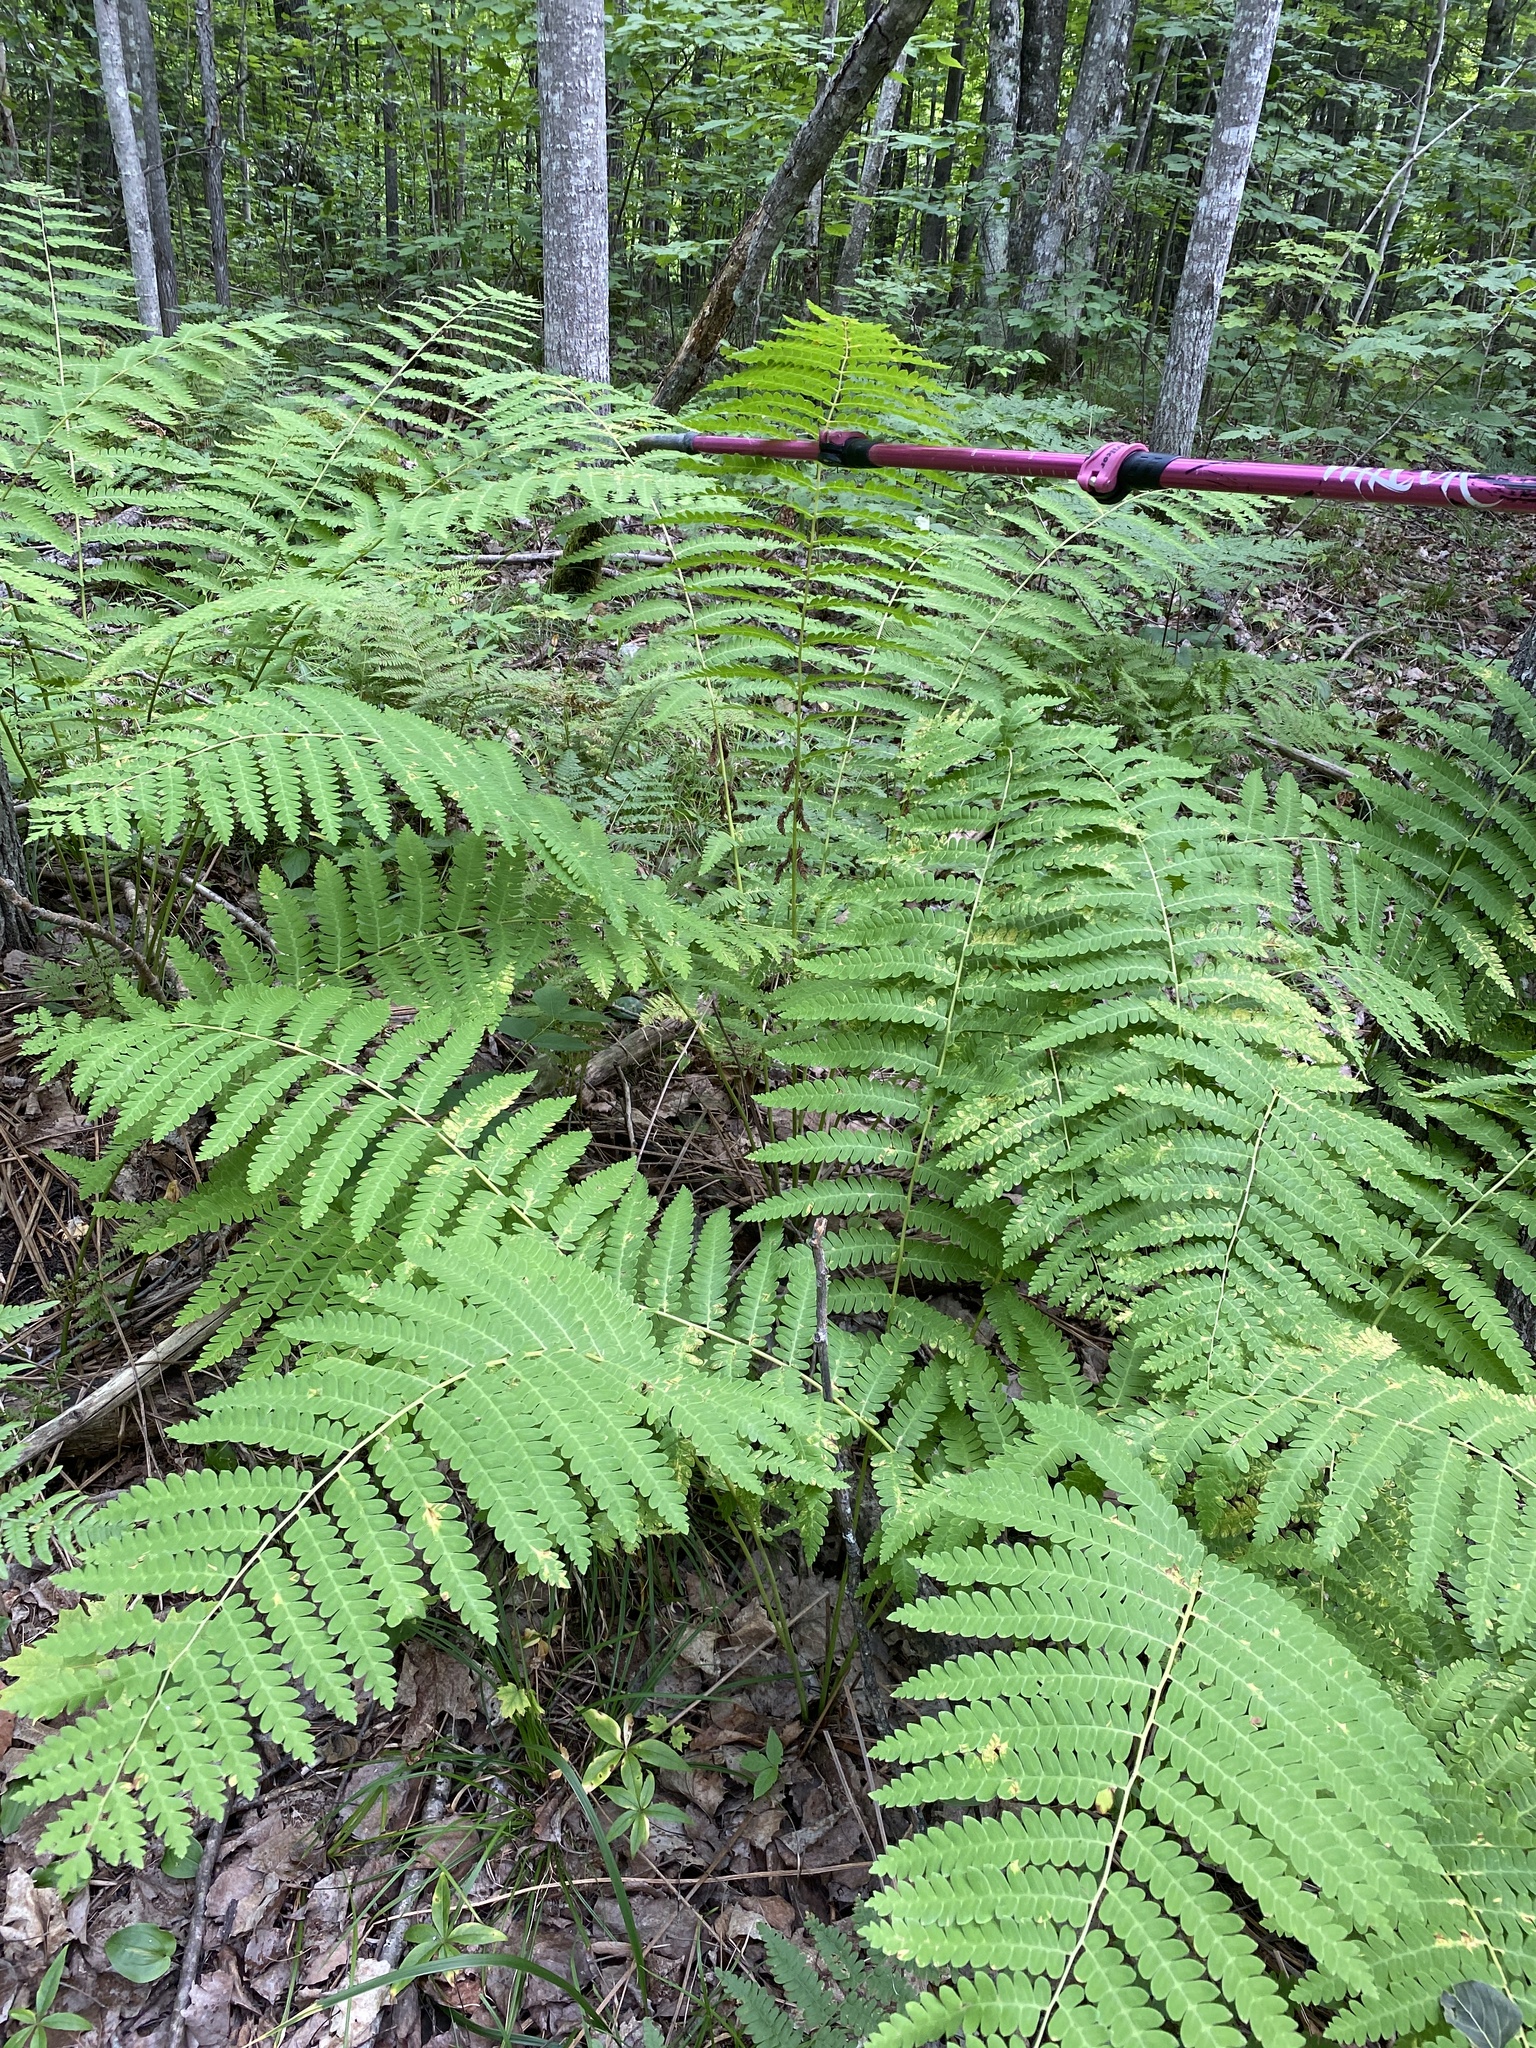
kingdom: Plantae
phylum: Tracheophyta
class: Polypodiopsida
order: Osmundales
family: Osmundaceae
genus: Claytosmunda
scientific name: Claytosmunda claytoniana
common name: Clayton's fern
